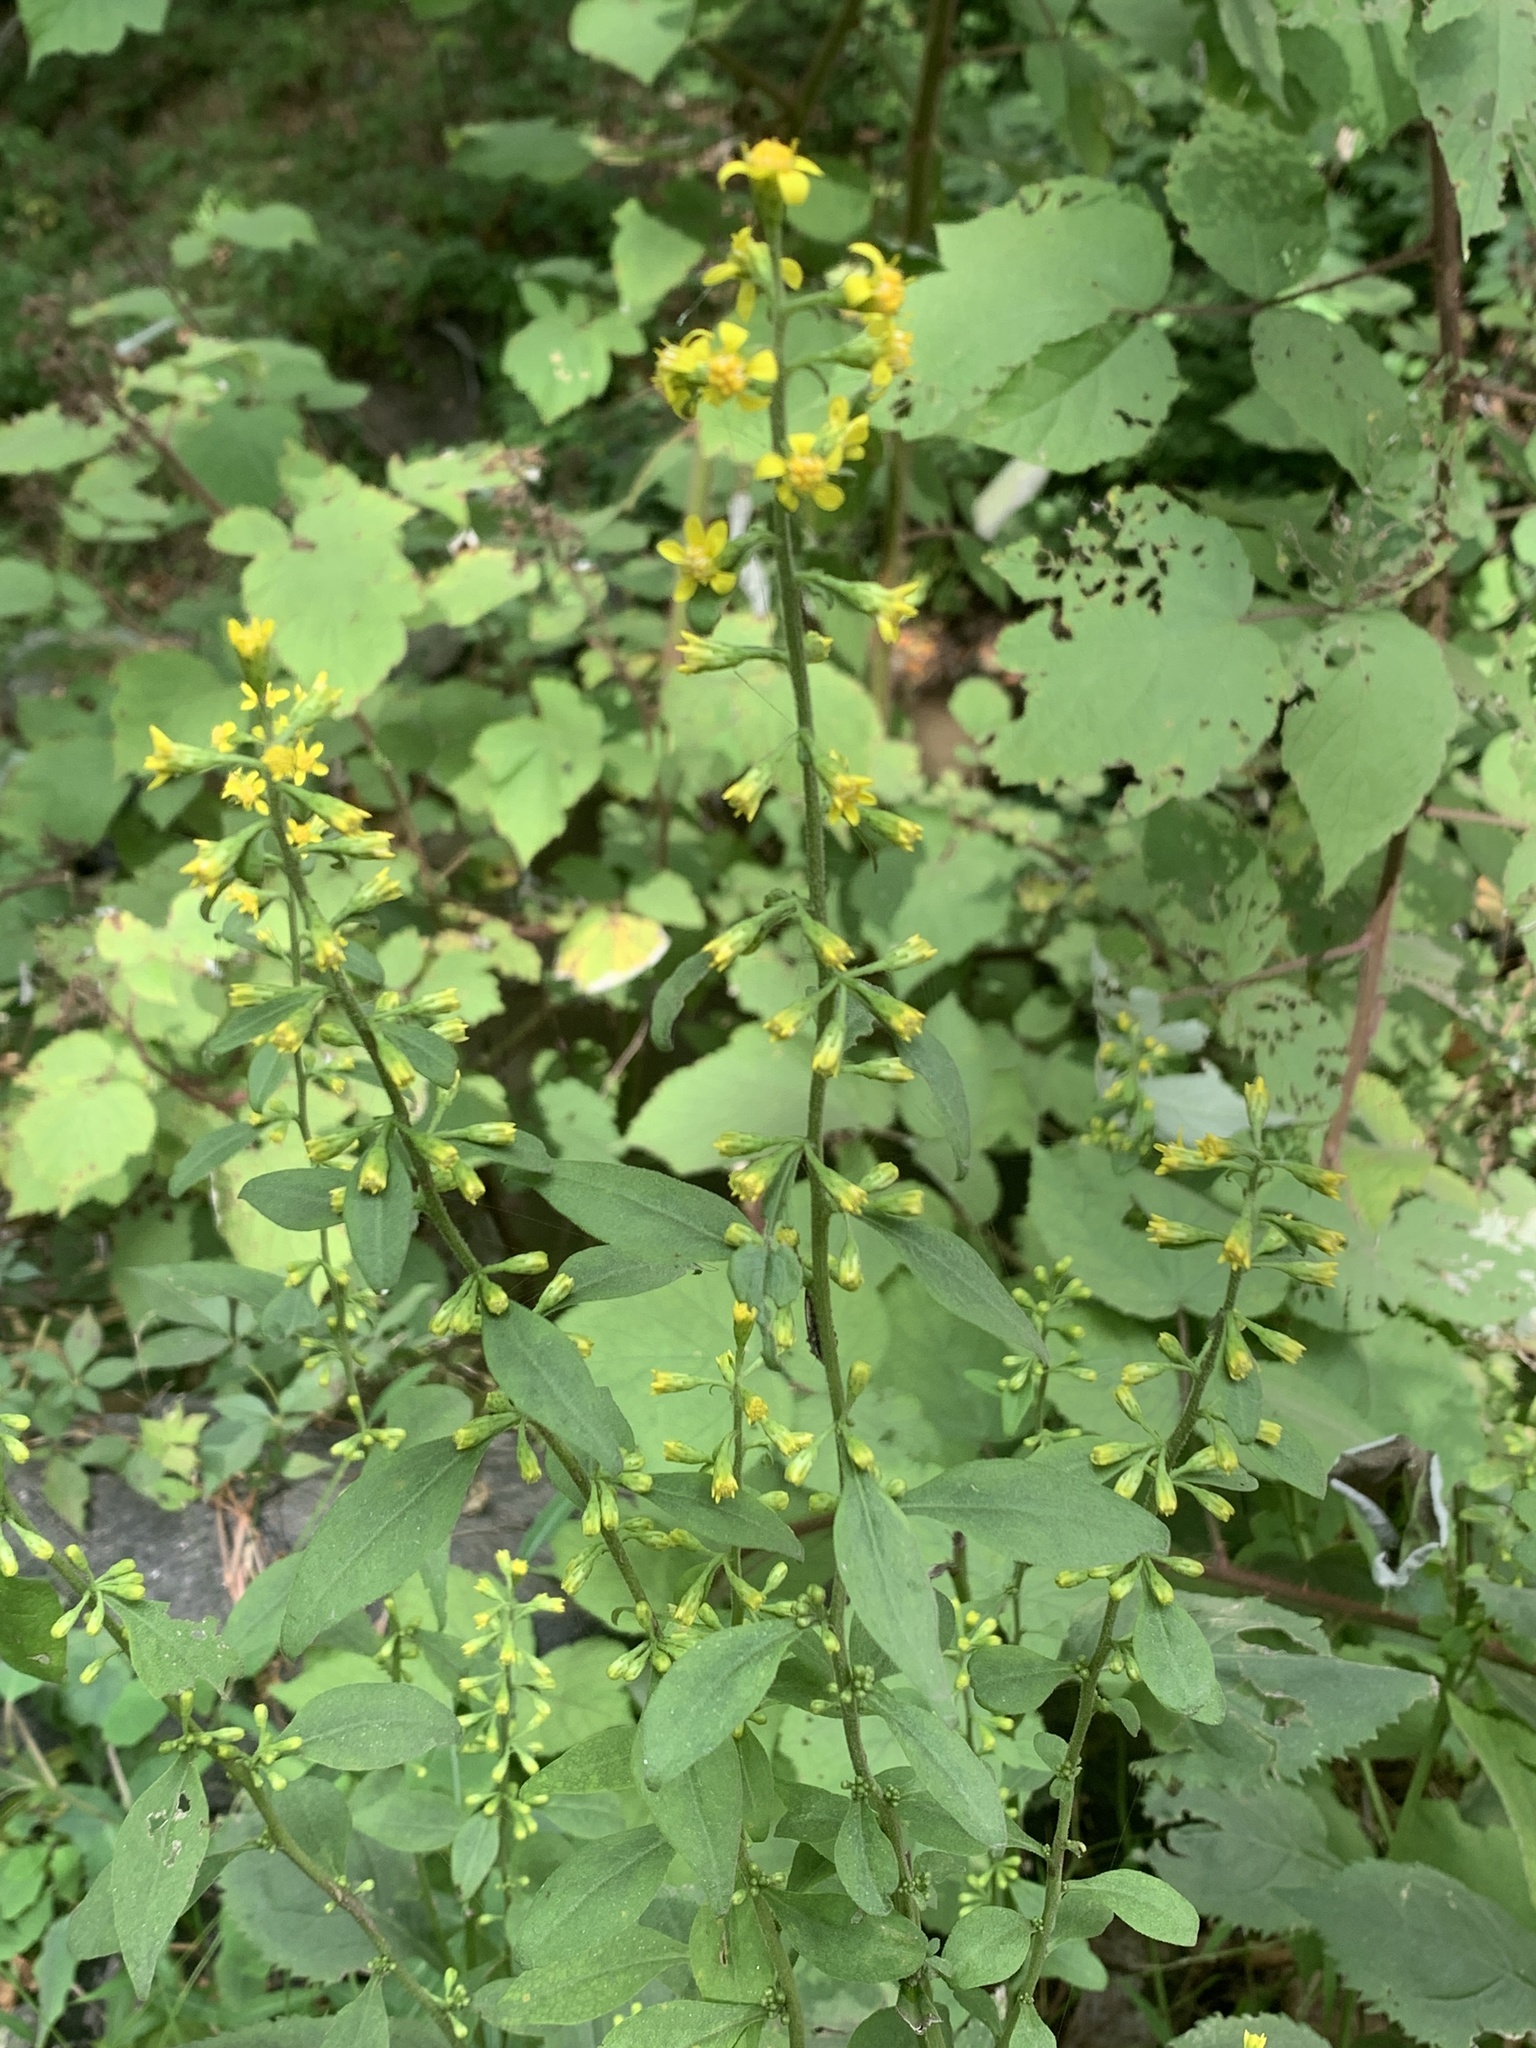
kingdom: Plantae
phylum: Tracheophyta
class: Magnoliopsida
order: Asterales
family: Asteraceae
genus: Solidago
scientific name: Solidago flexicaulis
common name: Zig-zag goldenrod
